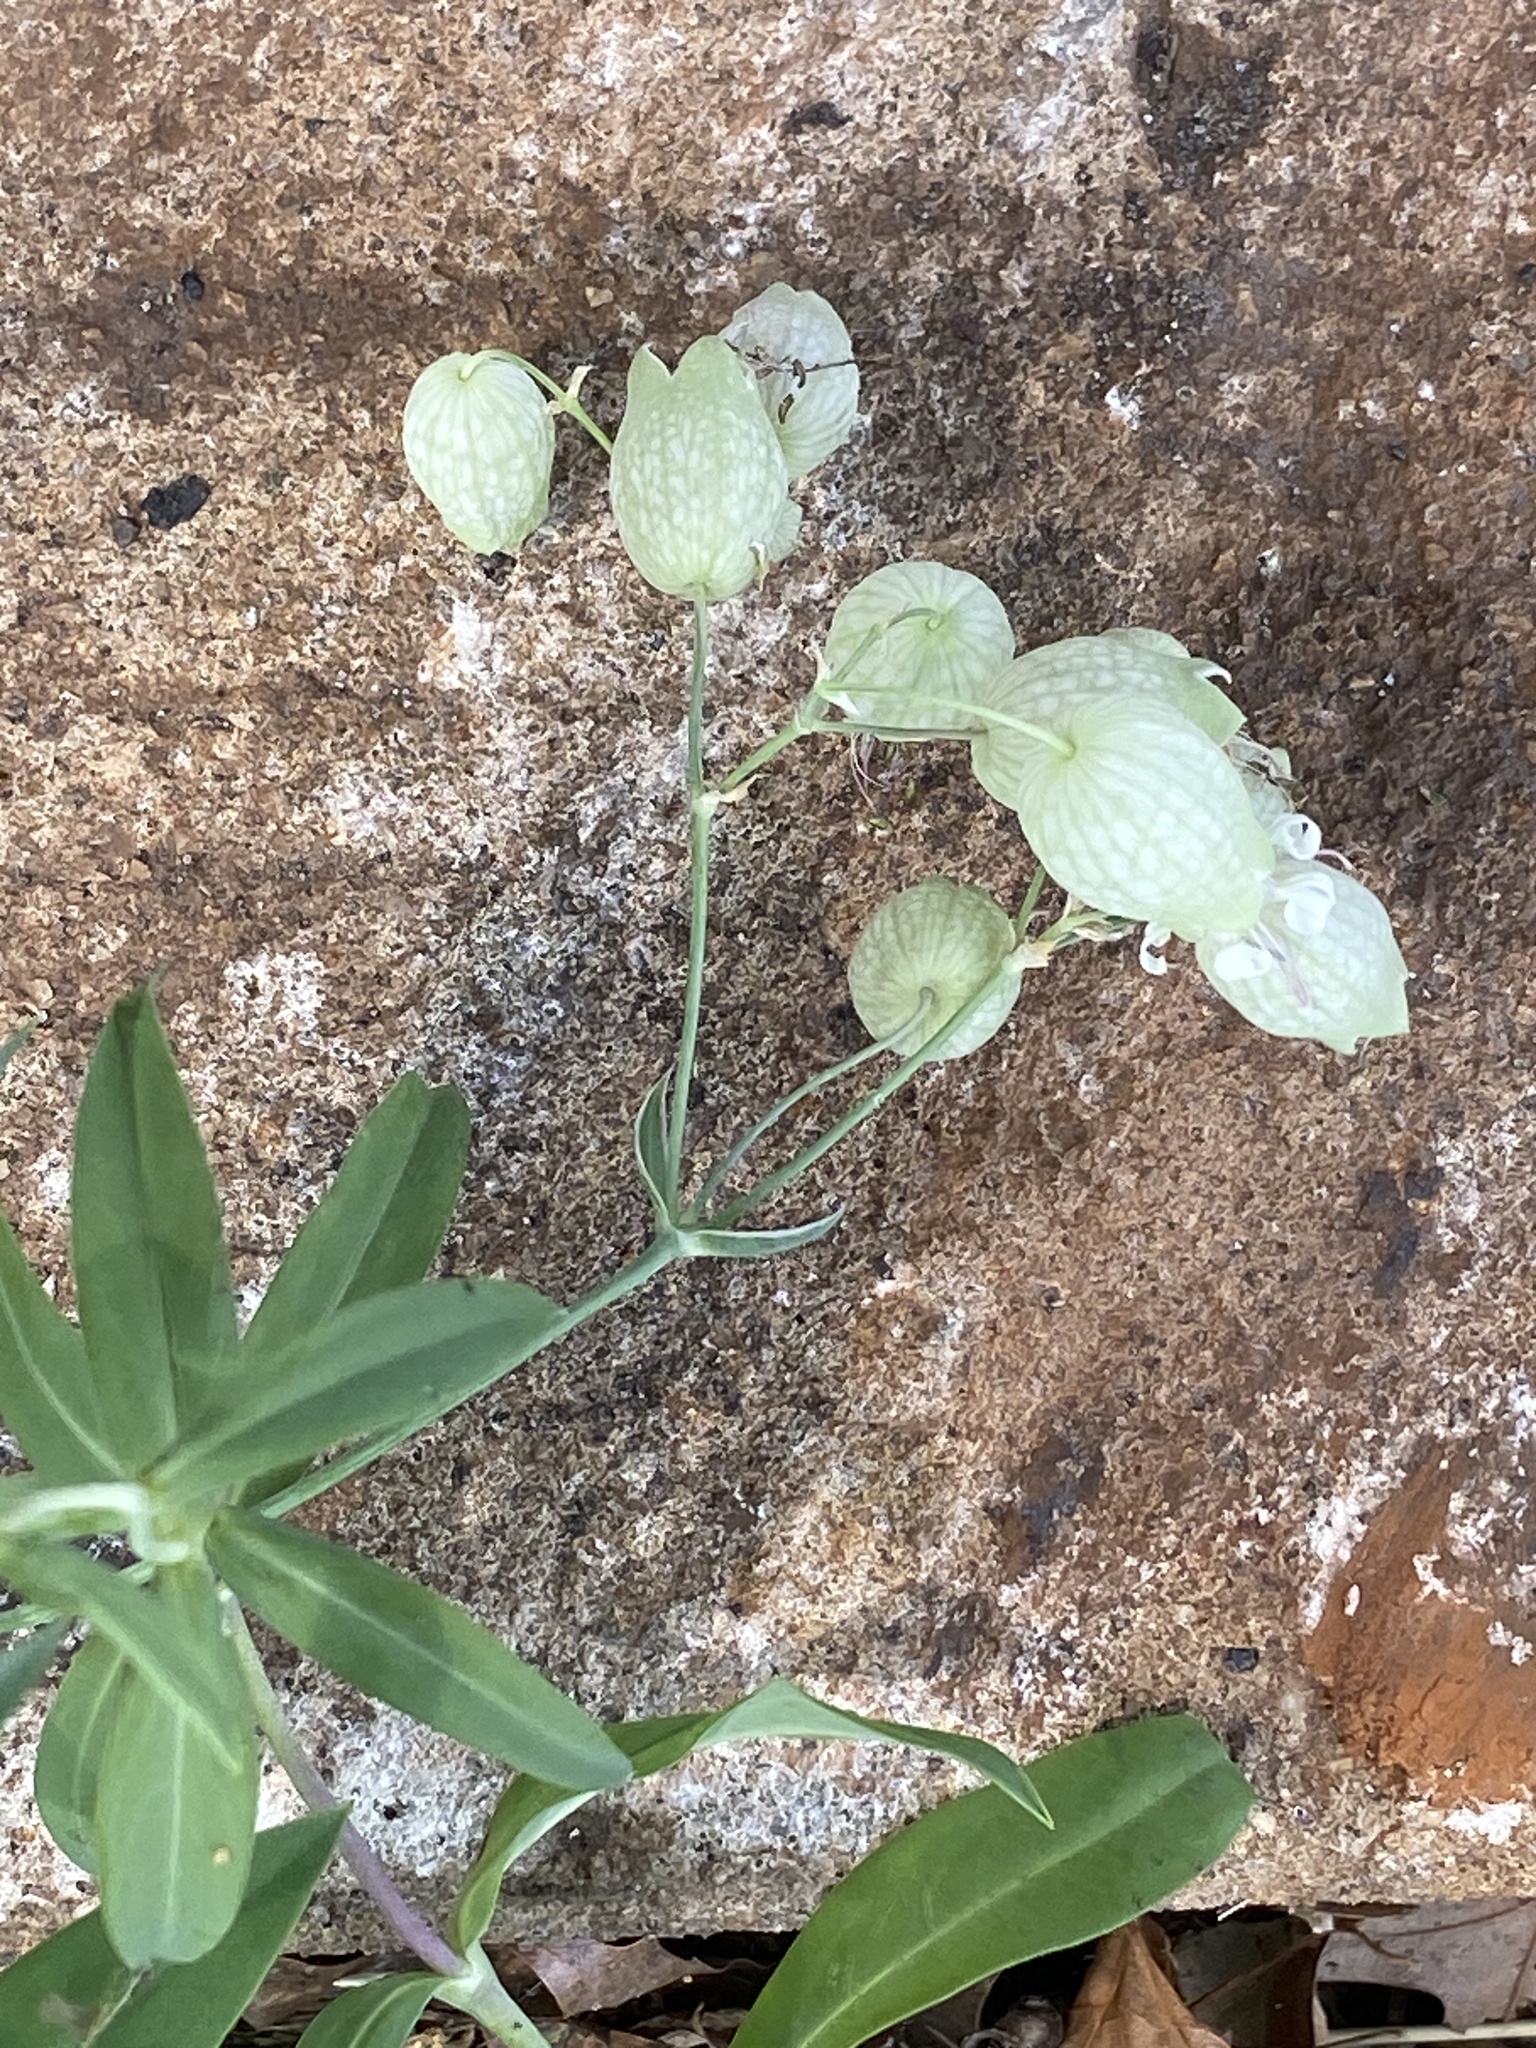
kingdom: Plantae
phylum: Tracheophyta
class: Magnoliopsida
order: Caryophyllales
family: Caryophyllaceae
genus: Silene
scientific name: Silene vulgaris
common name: Bladder campion
